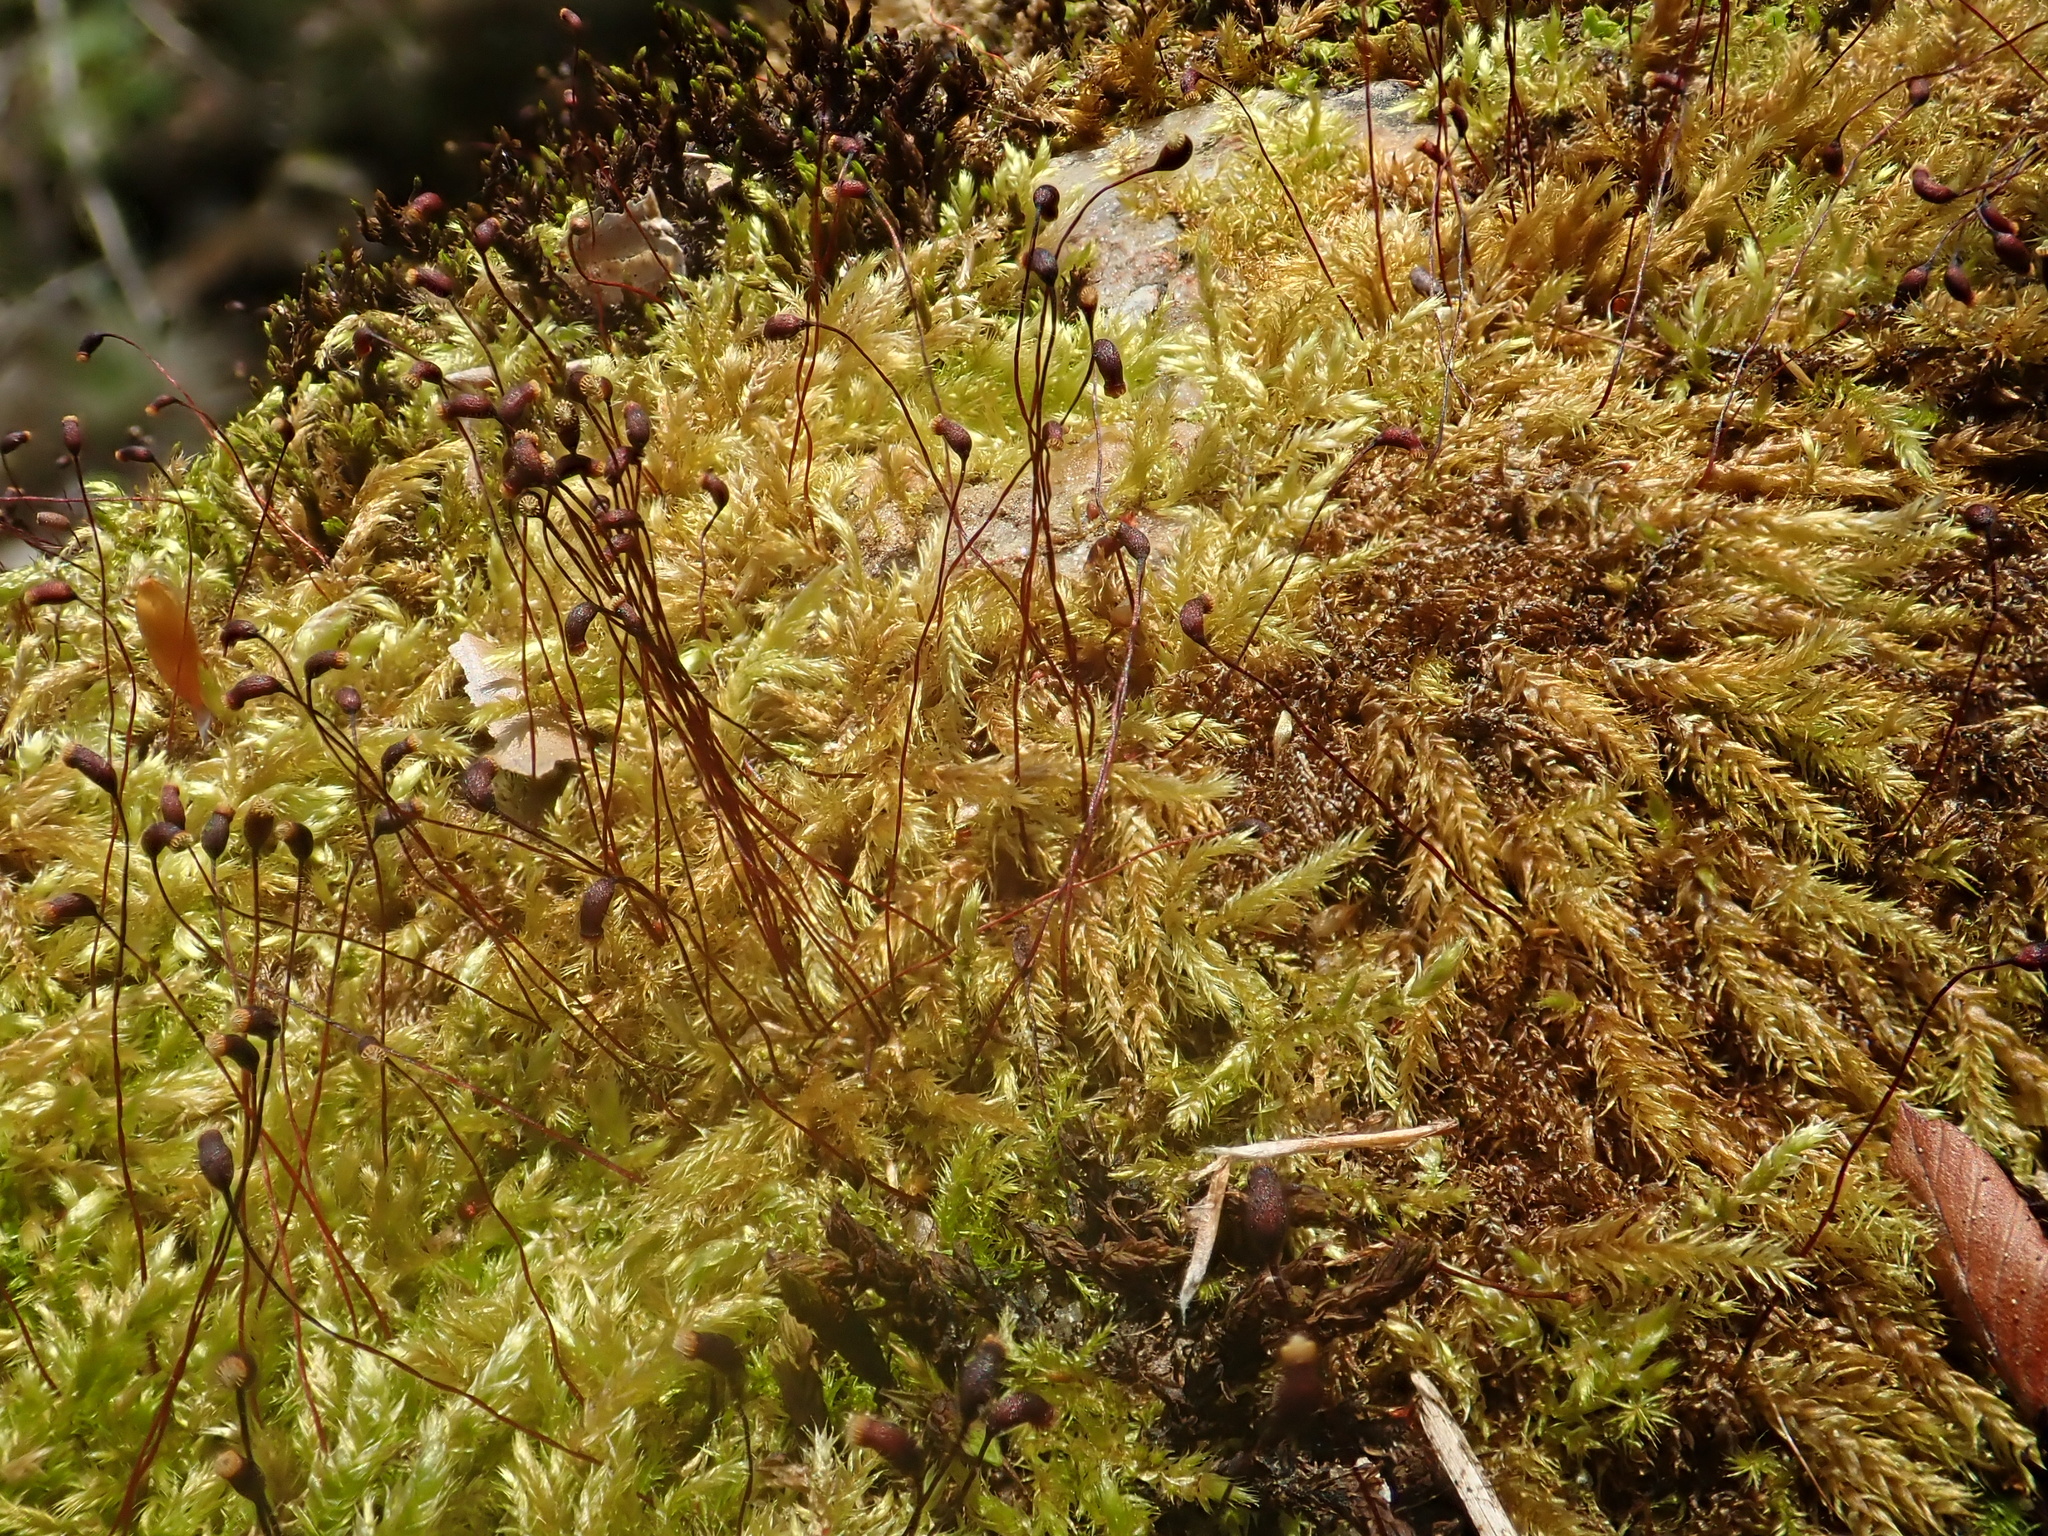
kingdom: Plantae
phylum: Bryophyta
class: Bryopsida
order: Hypnales
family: Brachytheciaceae
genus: Sciuro-hypnum
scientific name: Sciuro-hypnum plumosum
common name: Rusty feather-moss
